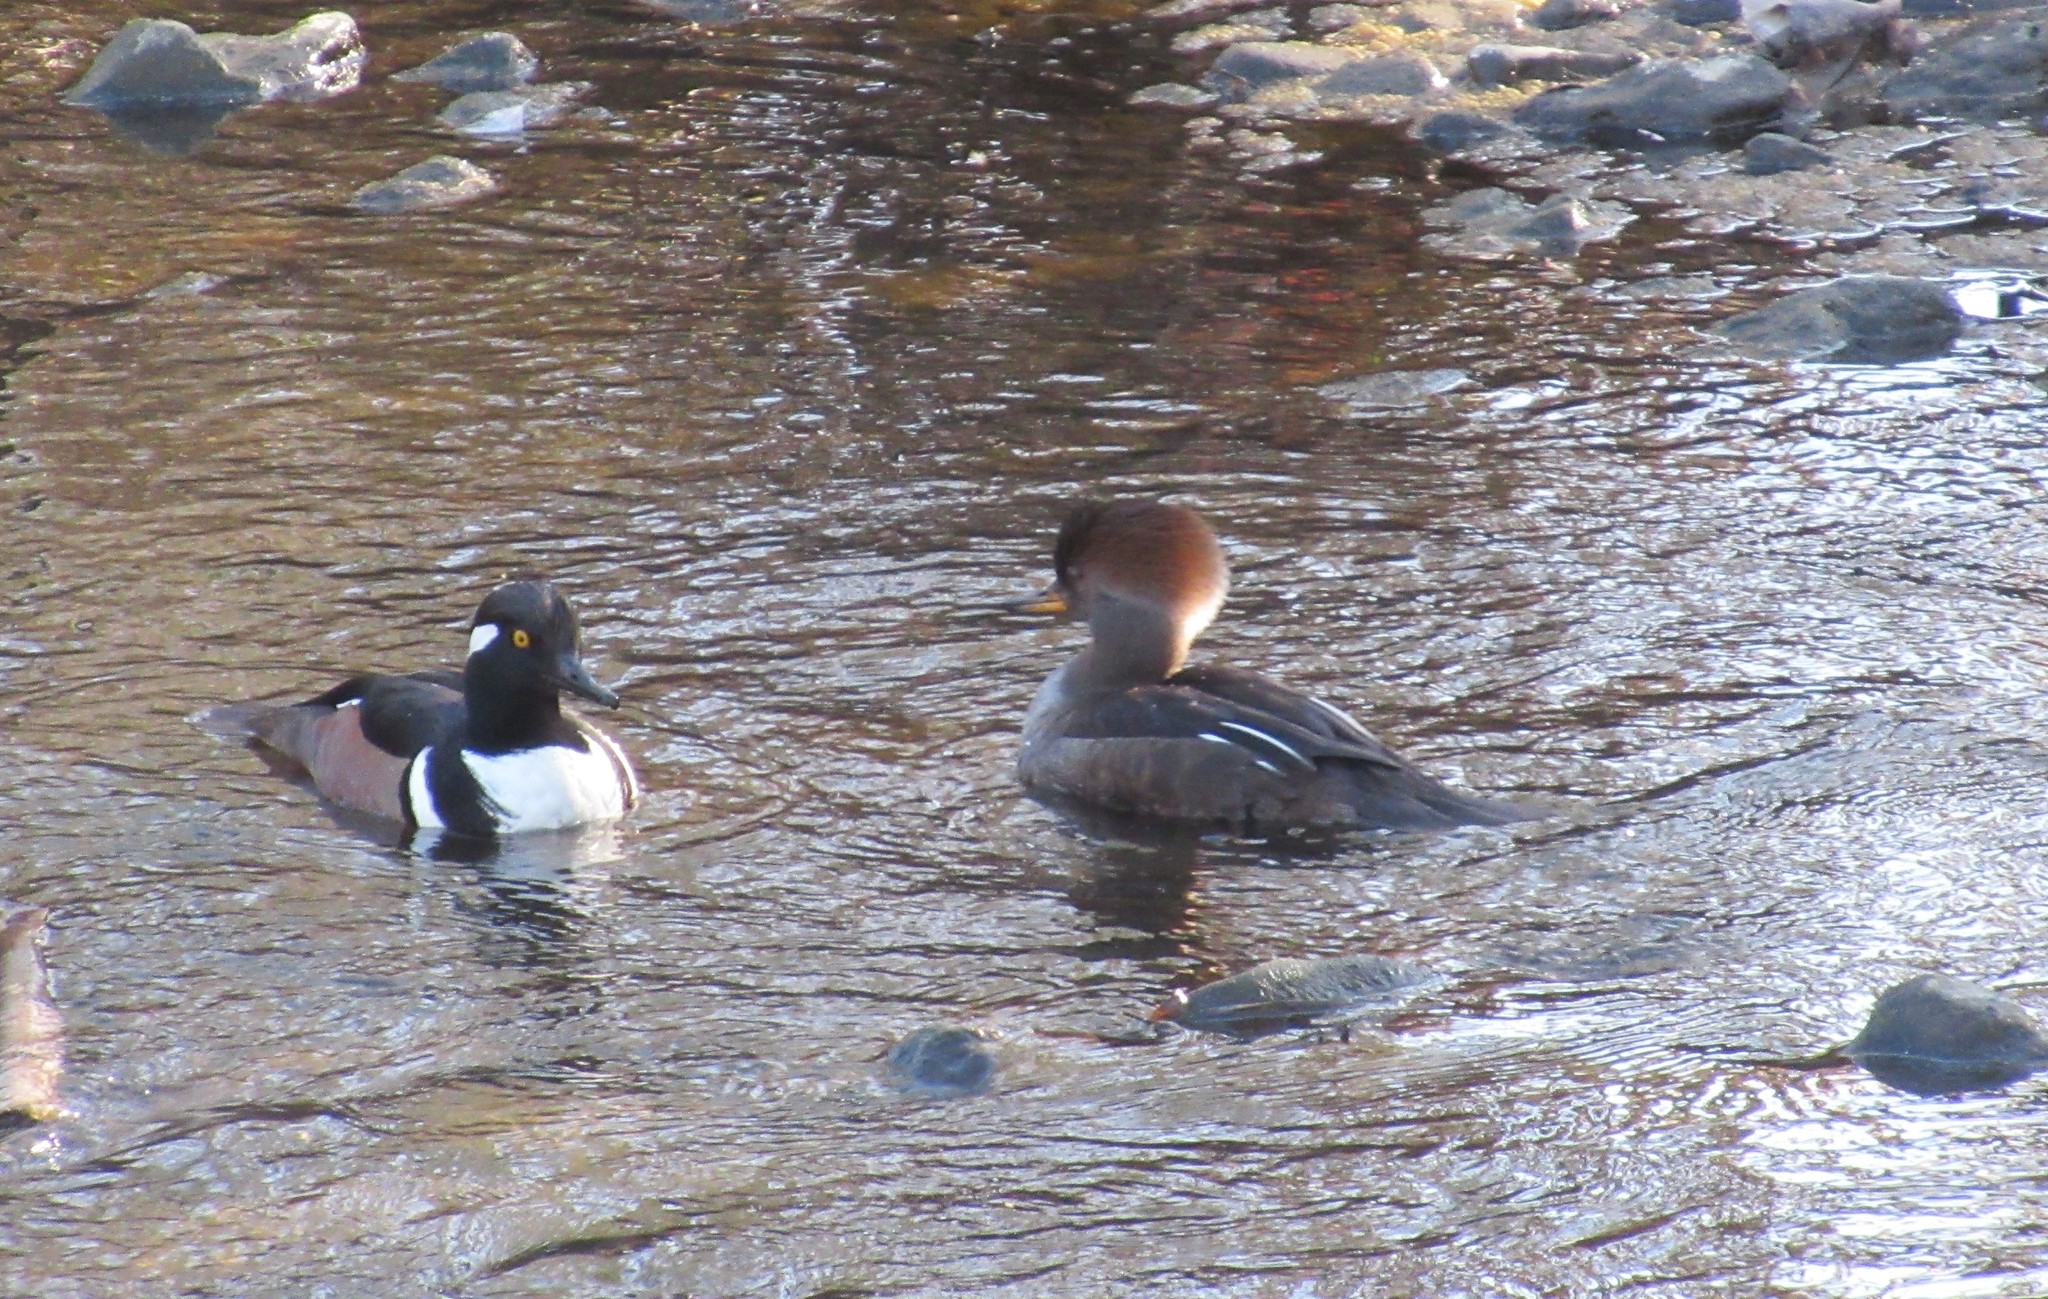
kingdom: Animalia
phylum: Chordata
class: Aves
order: Anseriformes
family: Anatidae
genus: Lophodytes
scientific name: Lophodytes cucullatus
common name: Hooded merganser
